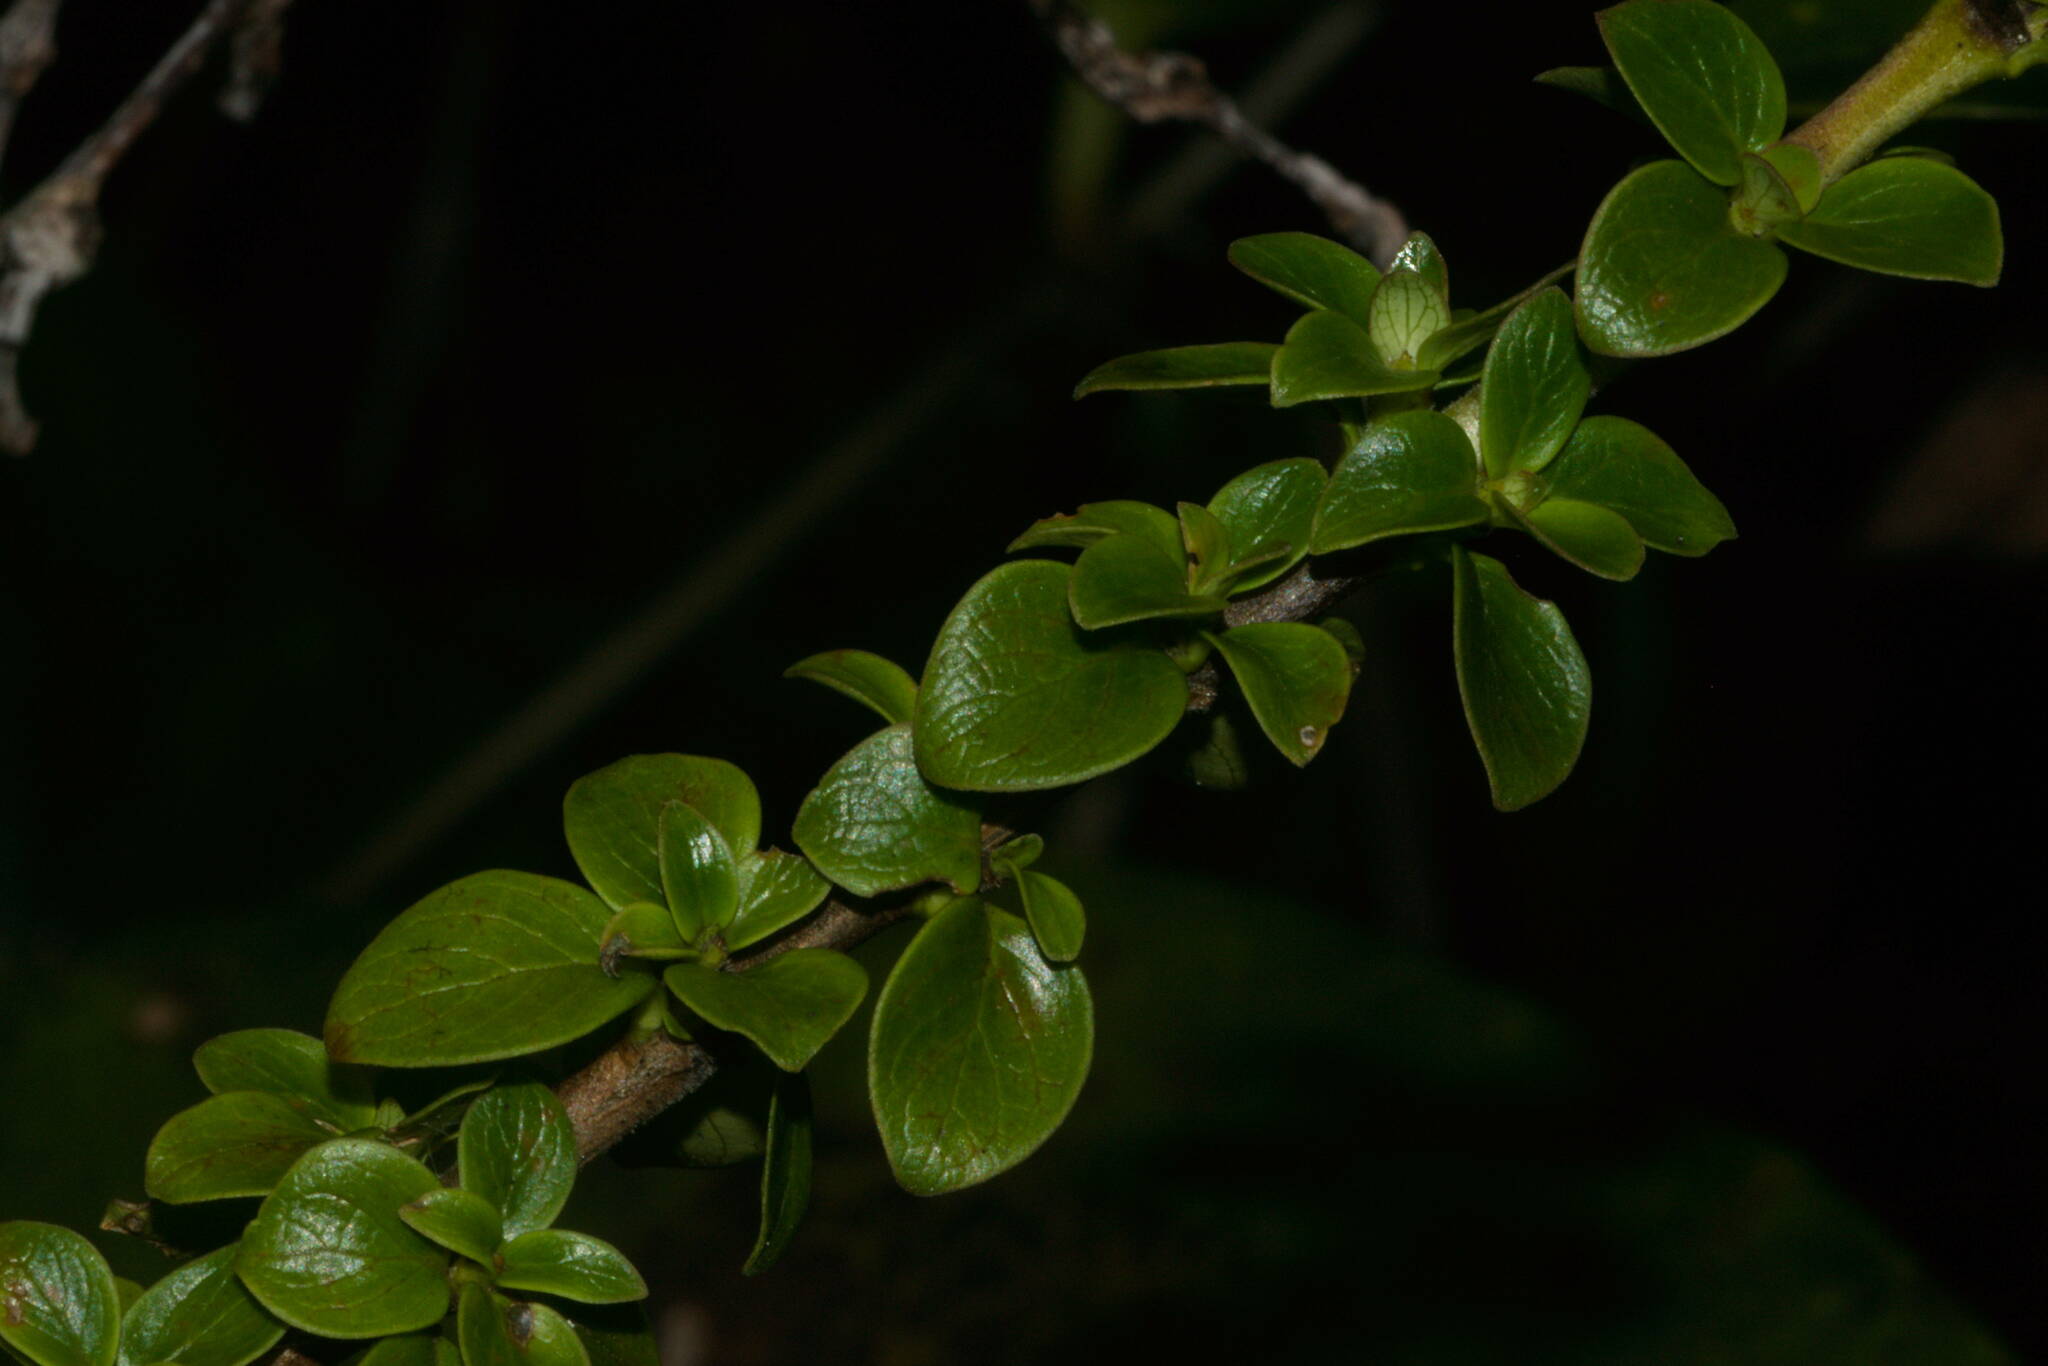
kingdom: Plantae
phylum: Tracheophyta
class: Magnoliopsida
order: Gentianales
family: Rubiaceae
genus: Coprosma
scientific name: Coprosma elliptica
